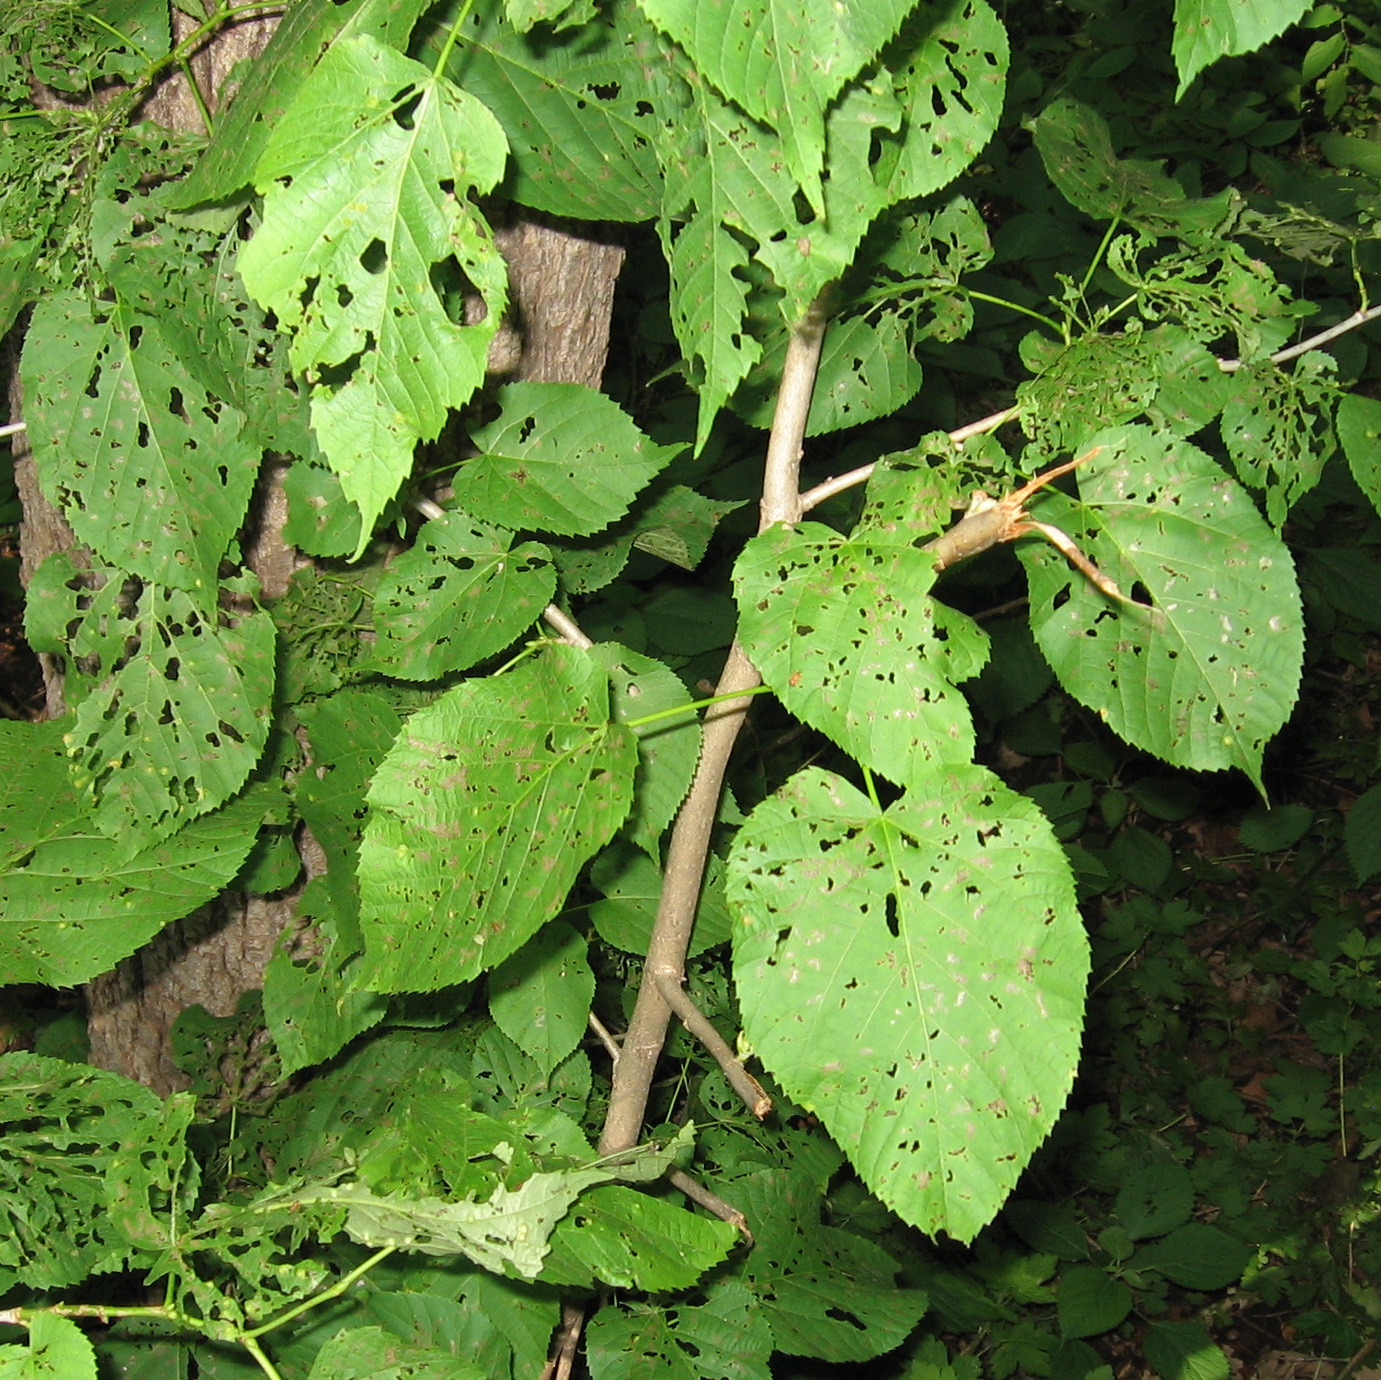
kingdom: Plantae
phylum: Tracheophyta
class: Magnoliopsida
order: Malvales
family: Malvaceae
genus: Tilia
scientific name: Tilia americana
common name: Basswood
